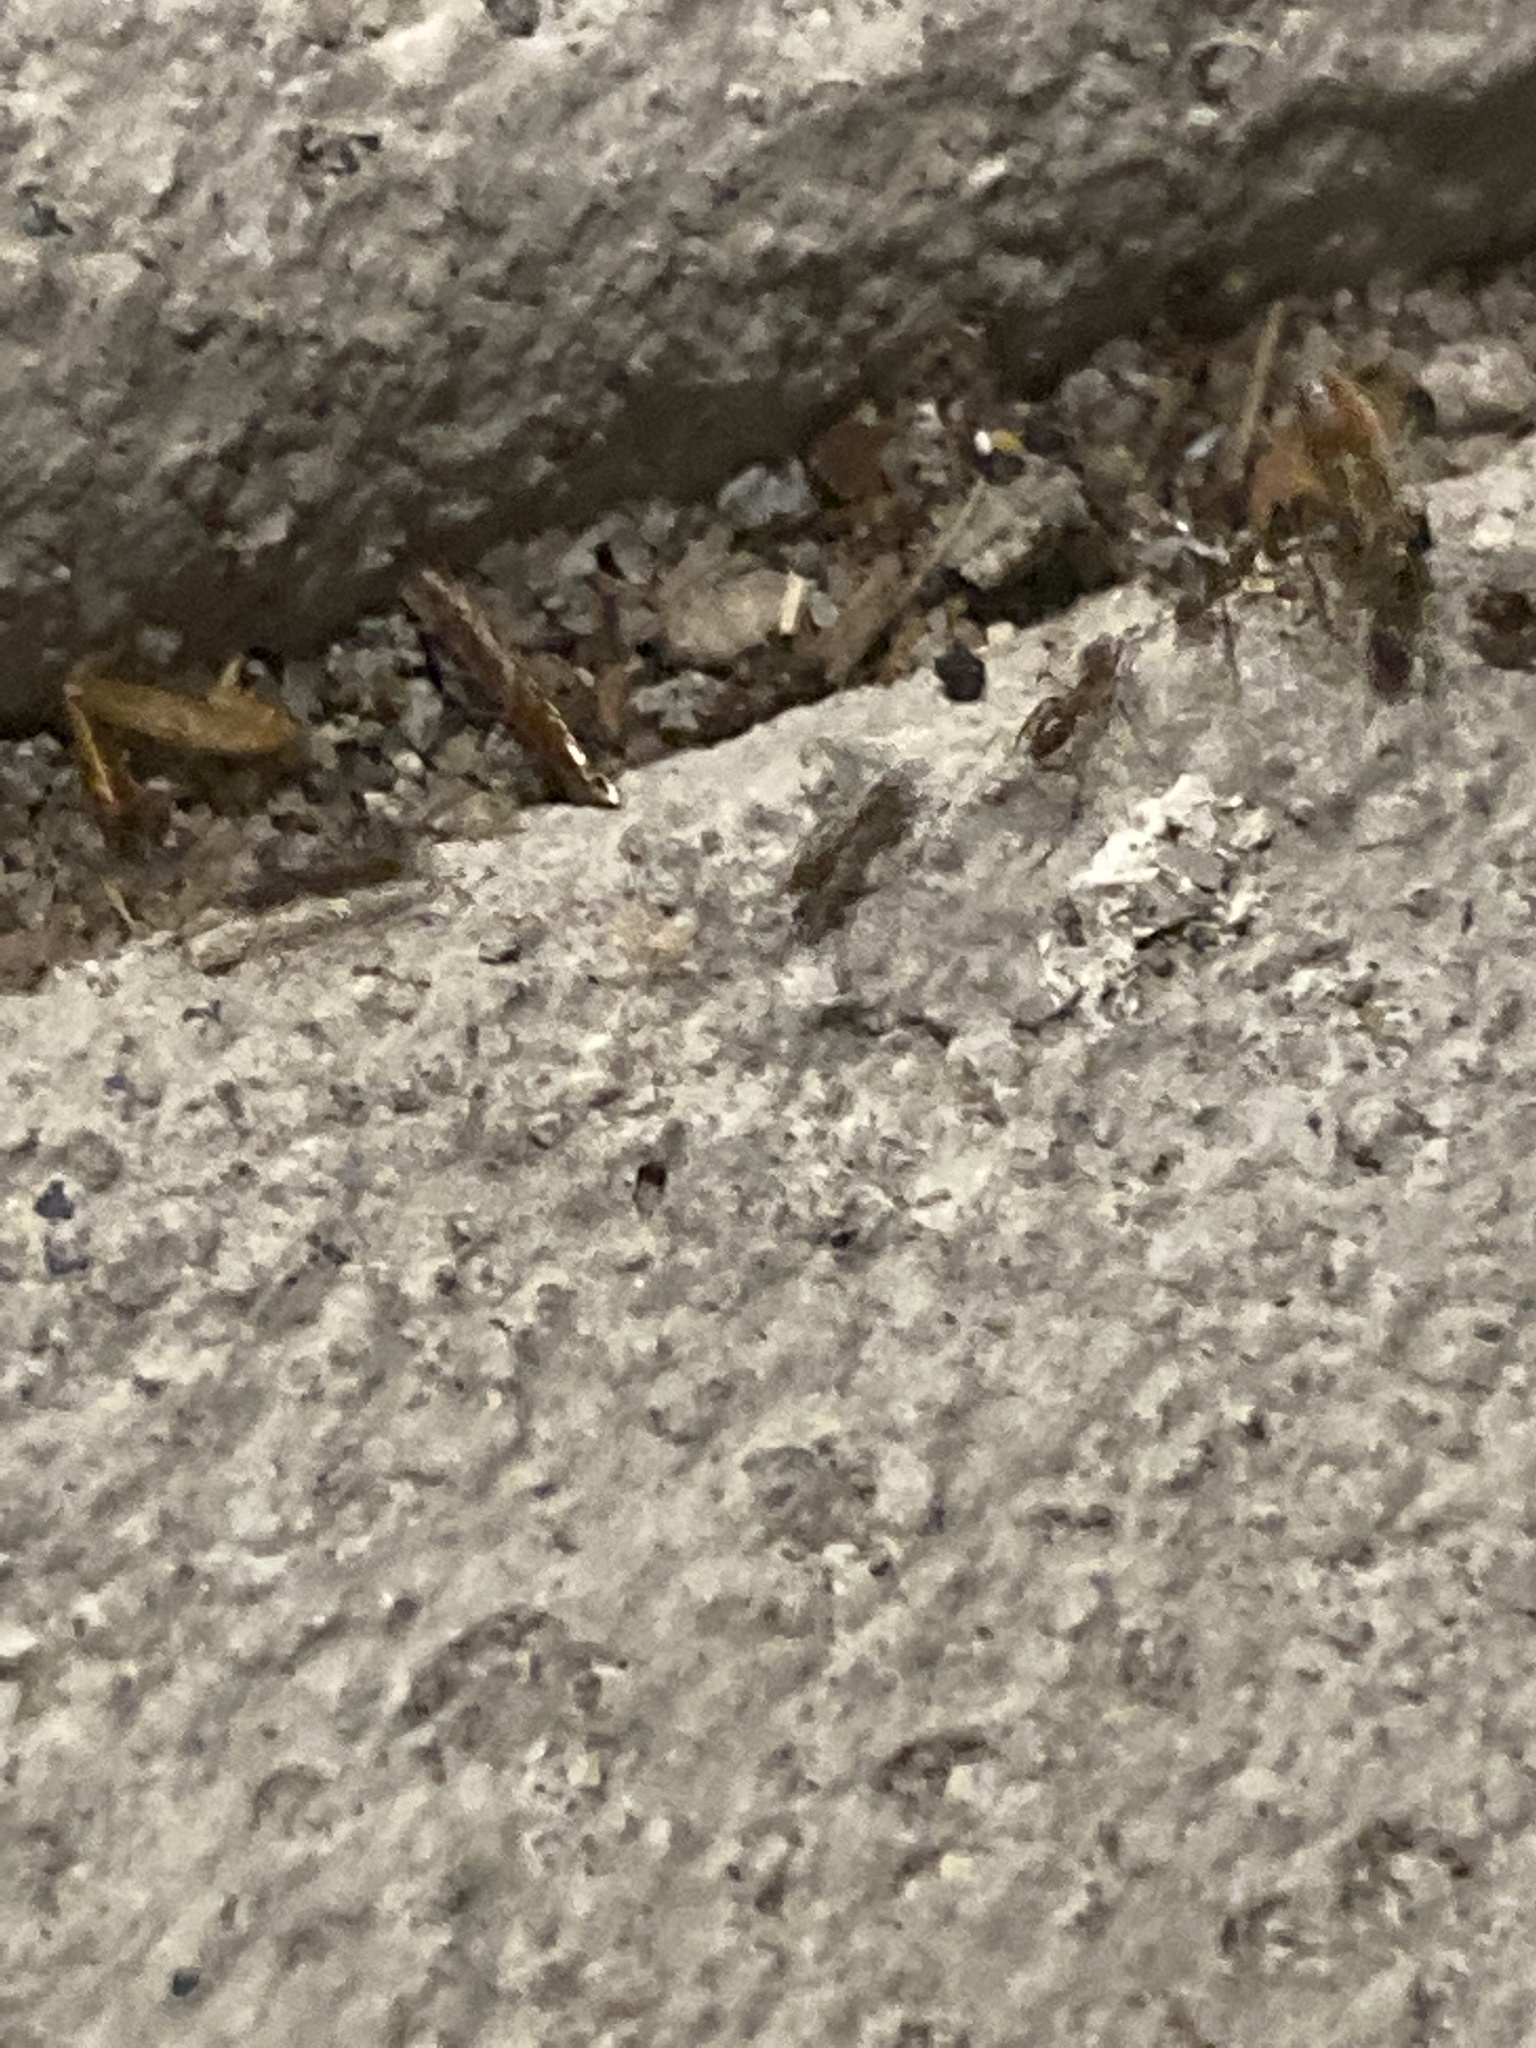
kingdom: Animalia
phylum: Arthropoda
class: Insecta
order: Hymenoptera
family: Formicidae
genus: Linepithema
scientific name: Linepithema humile
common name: Argentine ant
